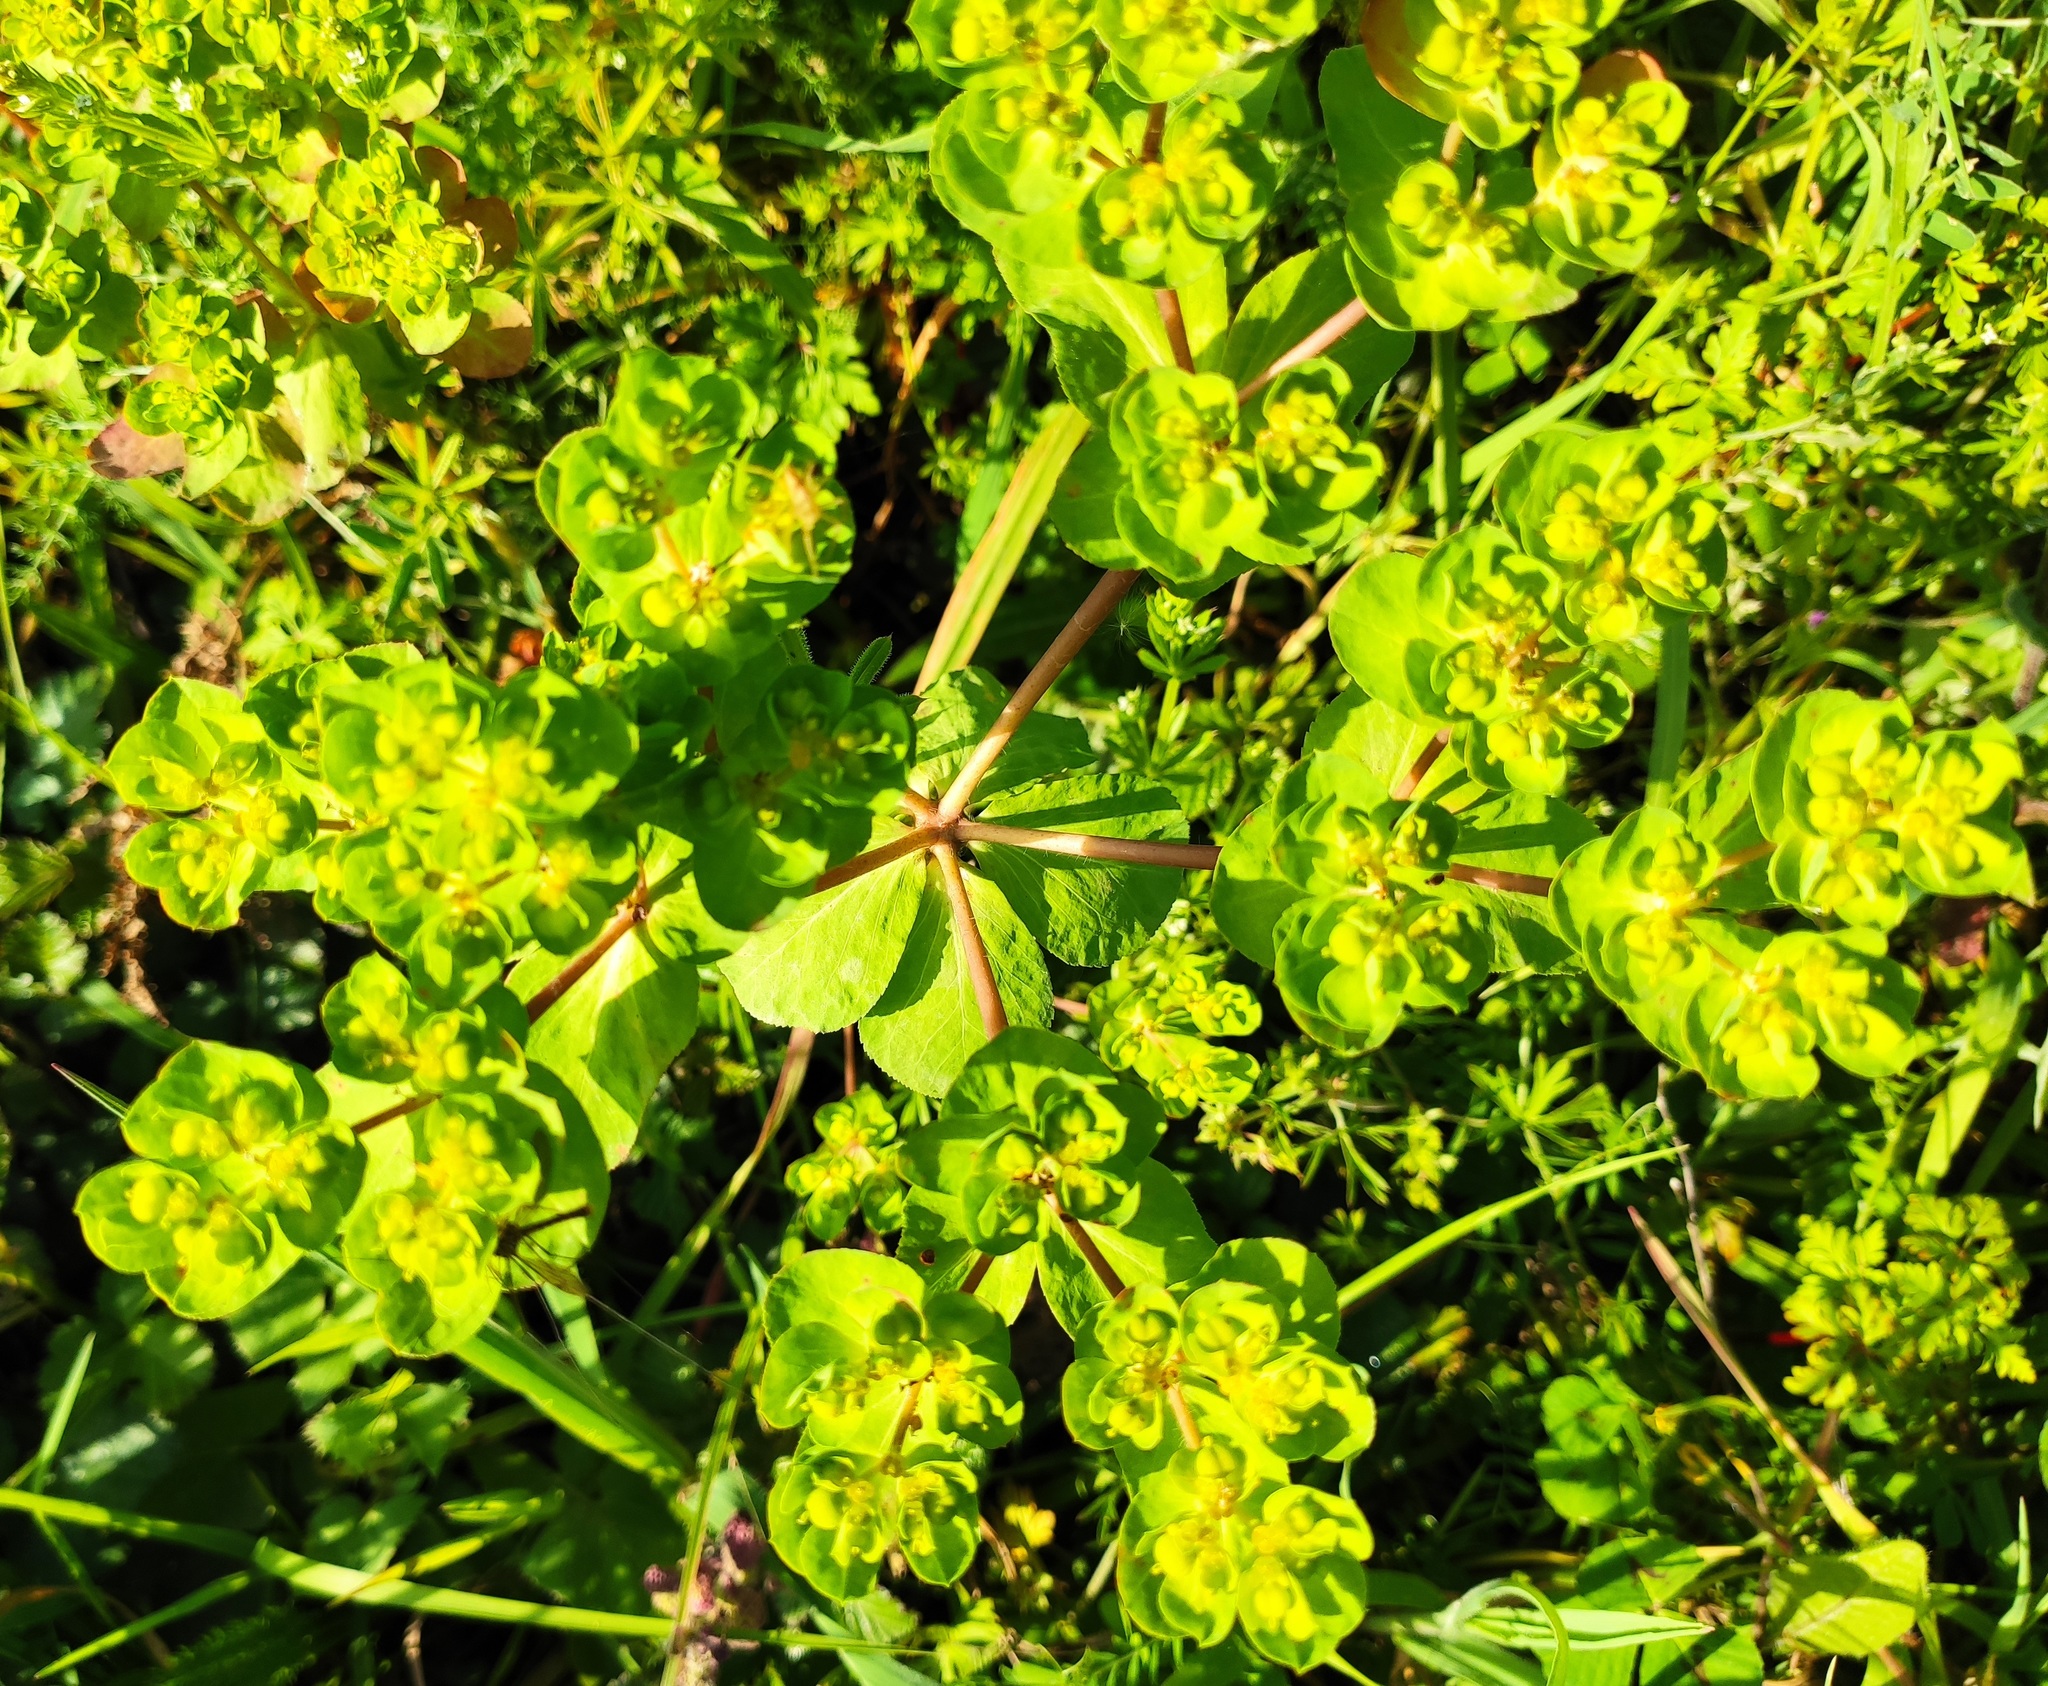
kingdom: Plantae
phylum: Tracheophyta
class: Magnoliopsida
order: Malpighiales
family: Euphorbiaceae
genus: Euphorbia
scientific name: Euphorbia helioscopia
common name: Sun spurge
